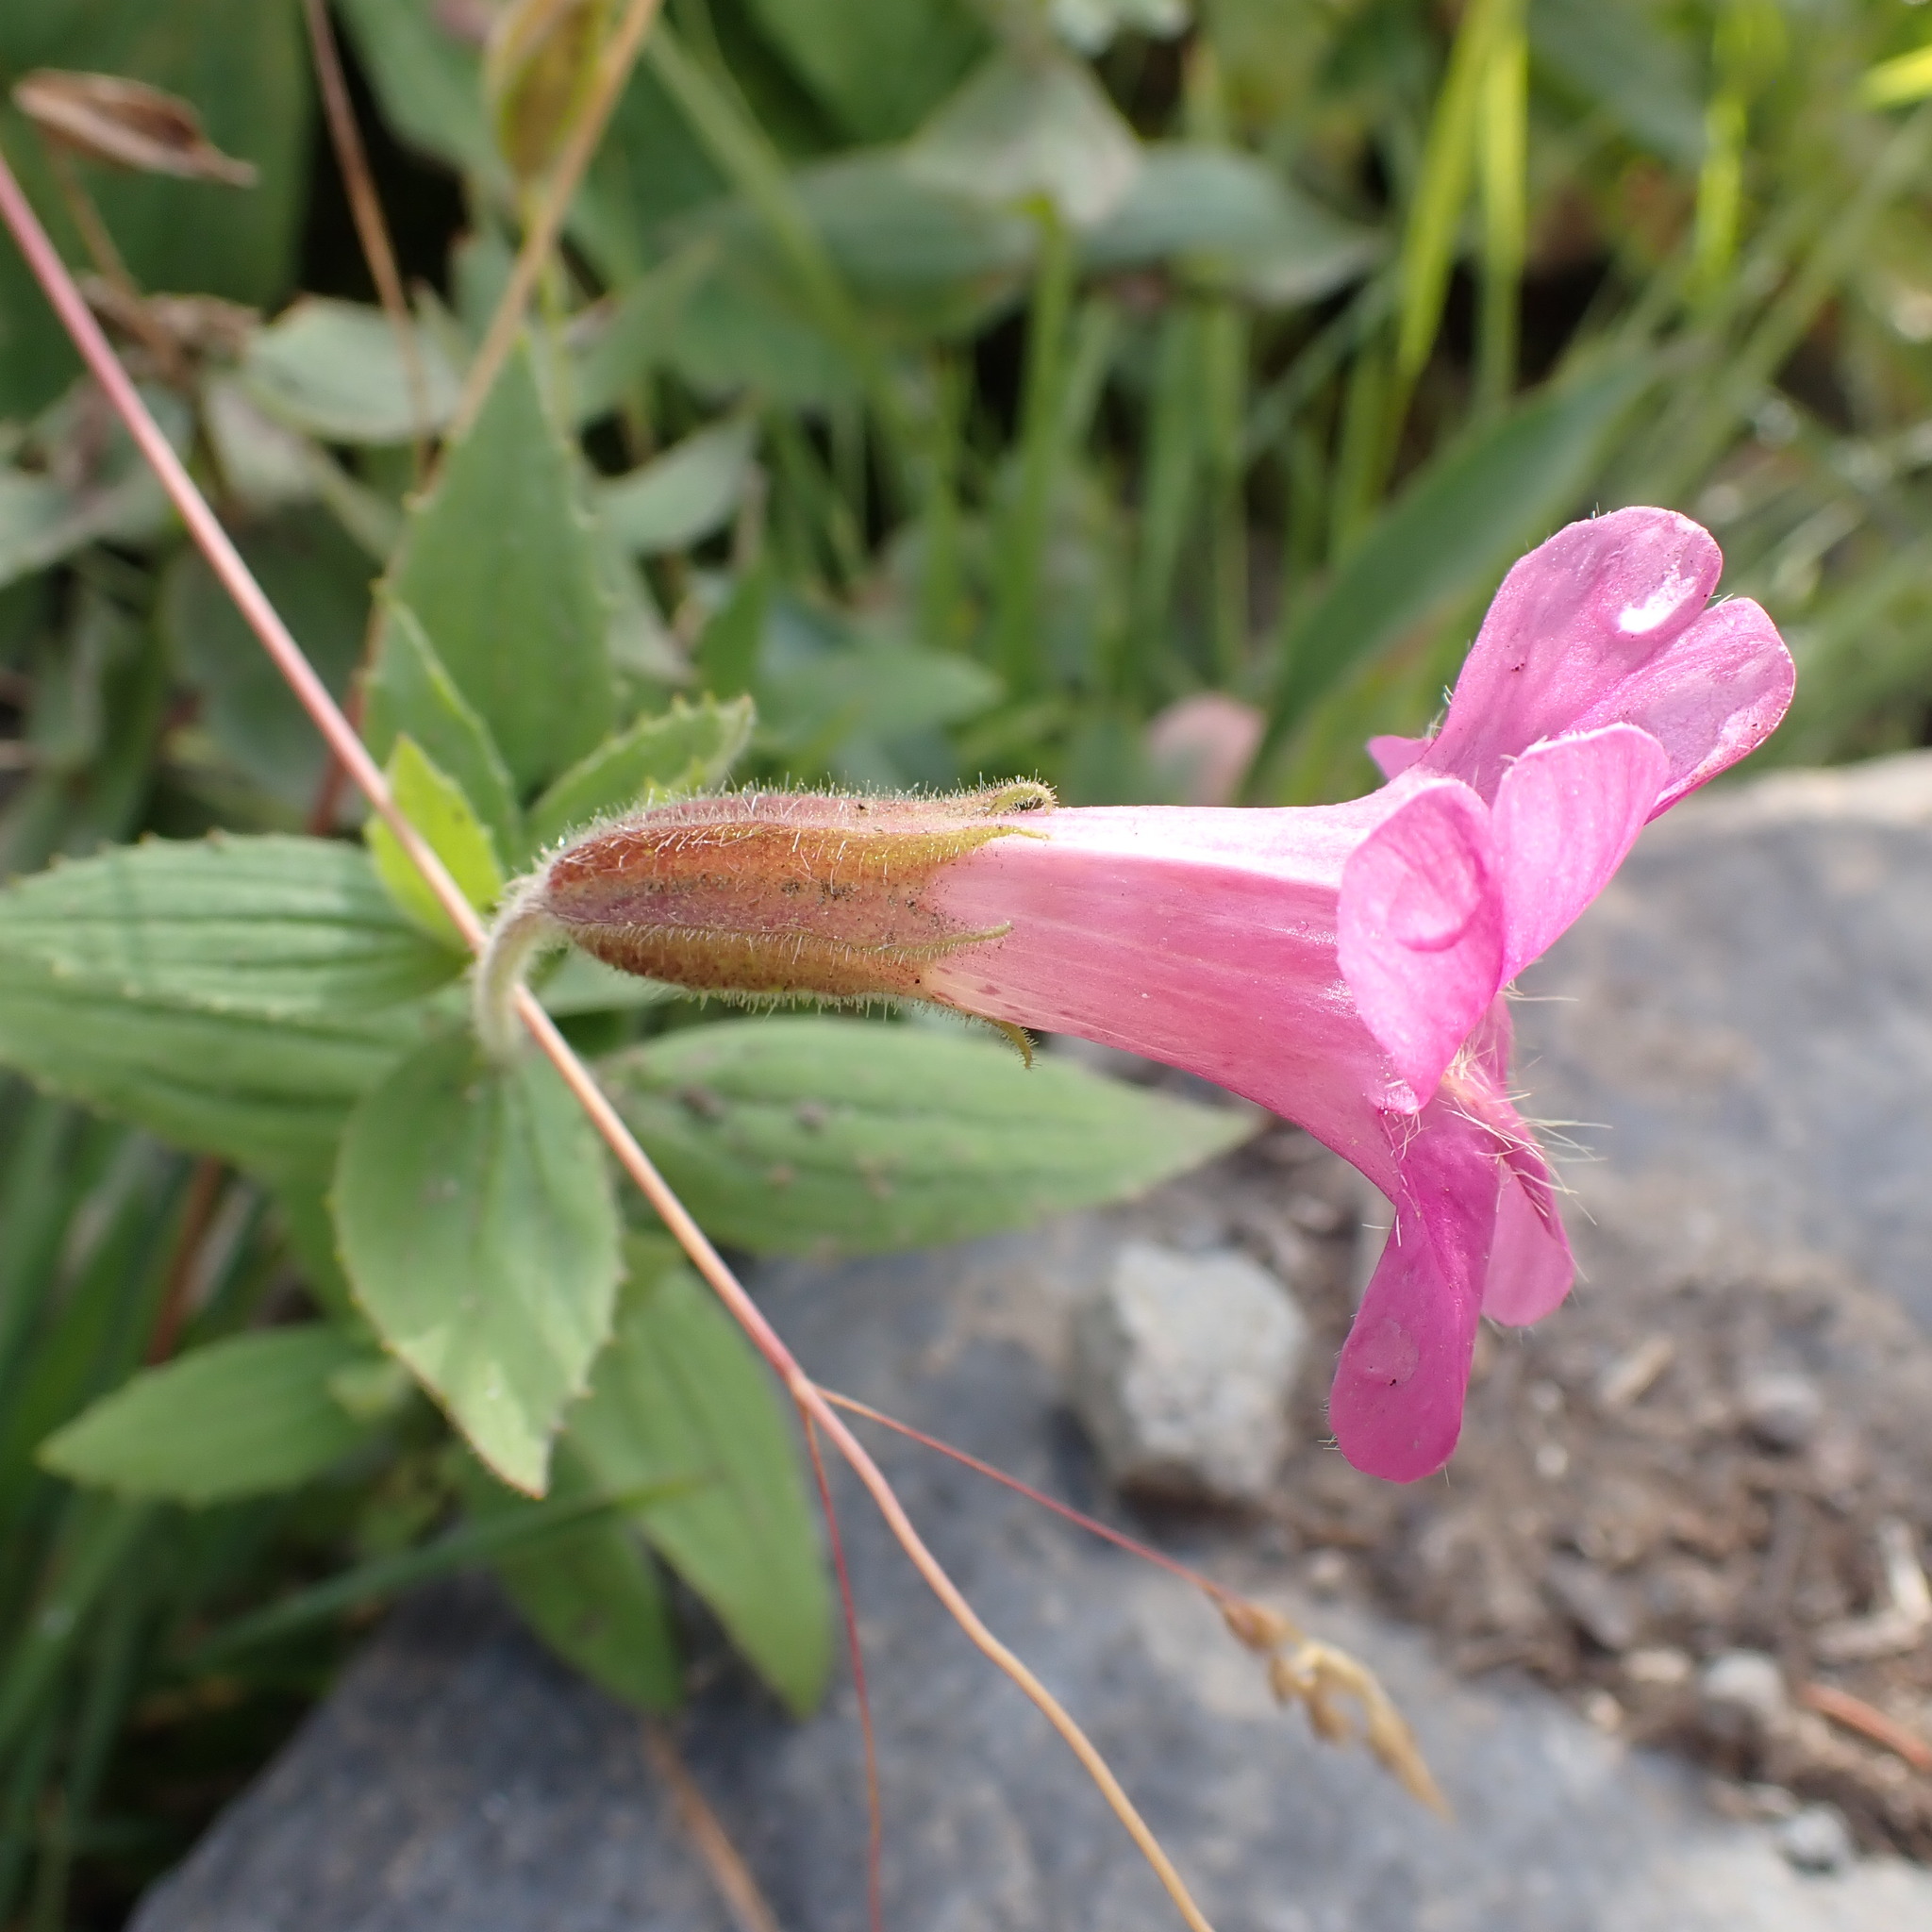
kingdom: Plantae
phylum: Tracheophyta
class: Magnoliopsida
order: Lamiales
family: Phrymaceae
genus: Erythranthe
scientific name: Erythranthe lewisii
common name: Lewis's monkey-flower
